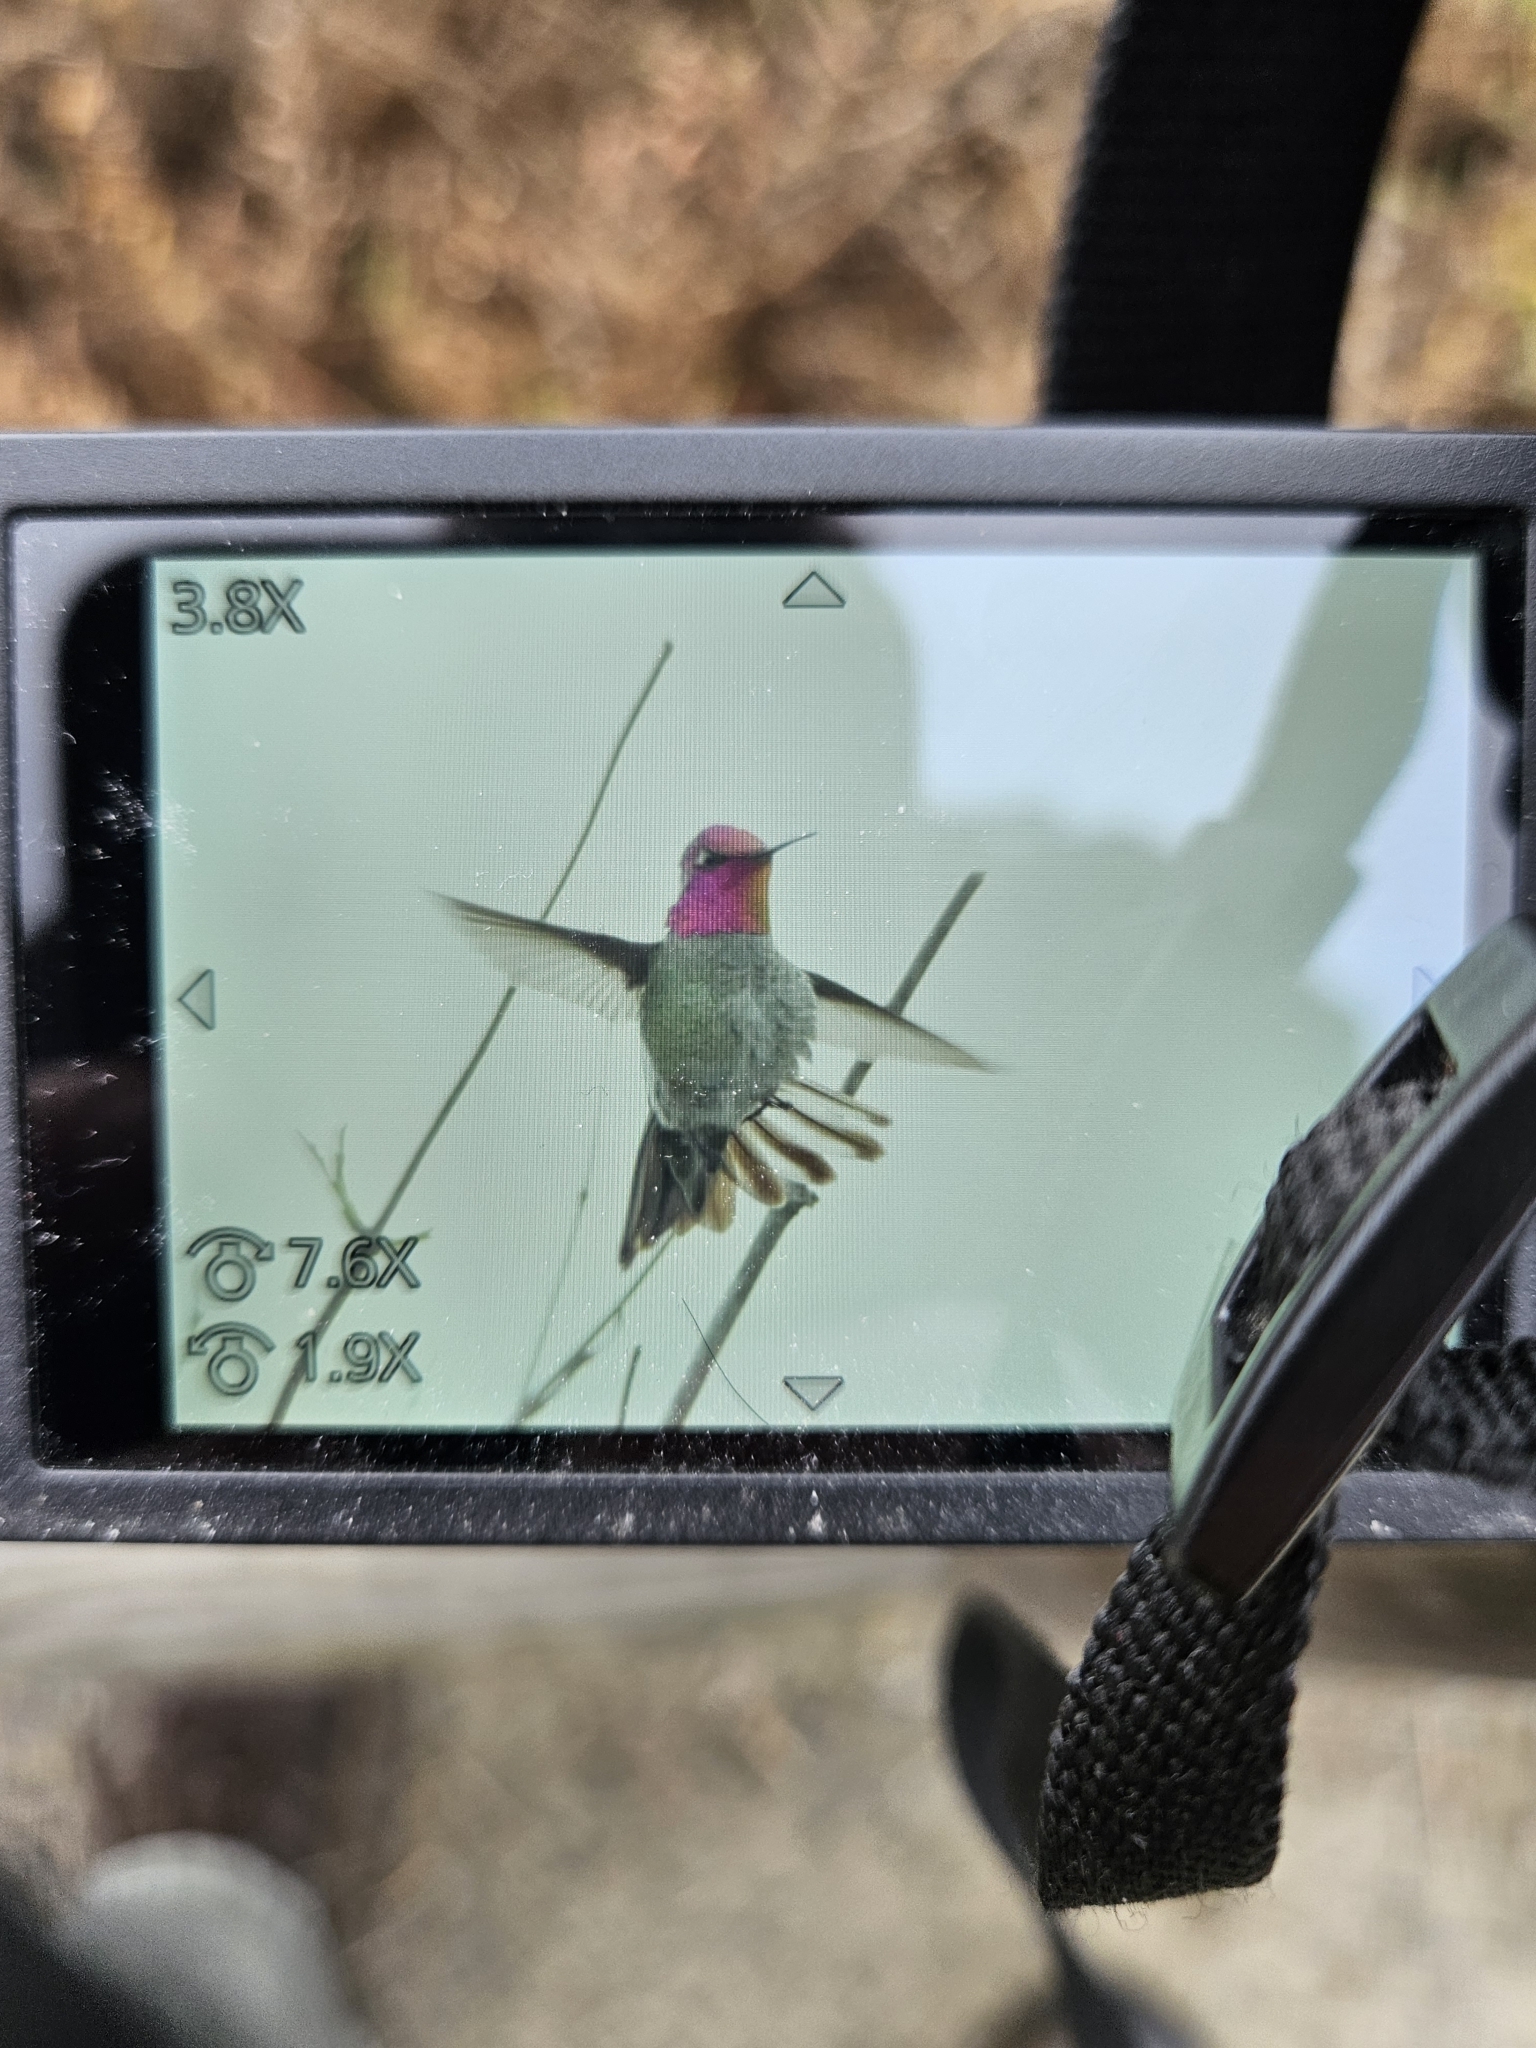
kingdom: Animalia
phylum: Chordata
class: Aves
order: Apodiformes
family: Trochilidae
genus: Calypte
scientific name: Calypte anna
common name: Anna's hummingbird
